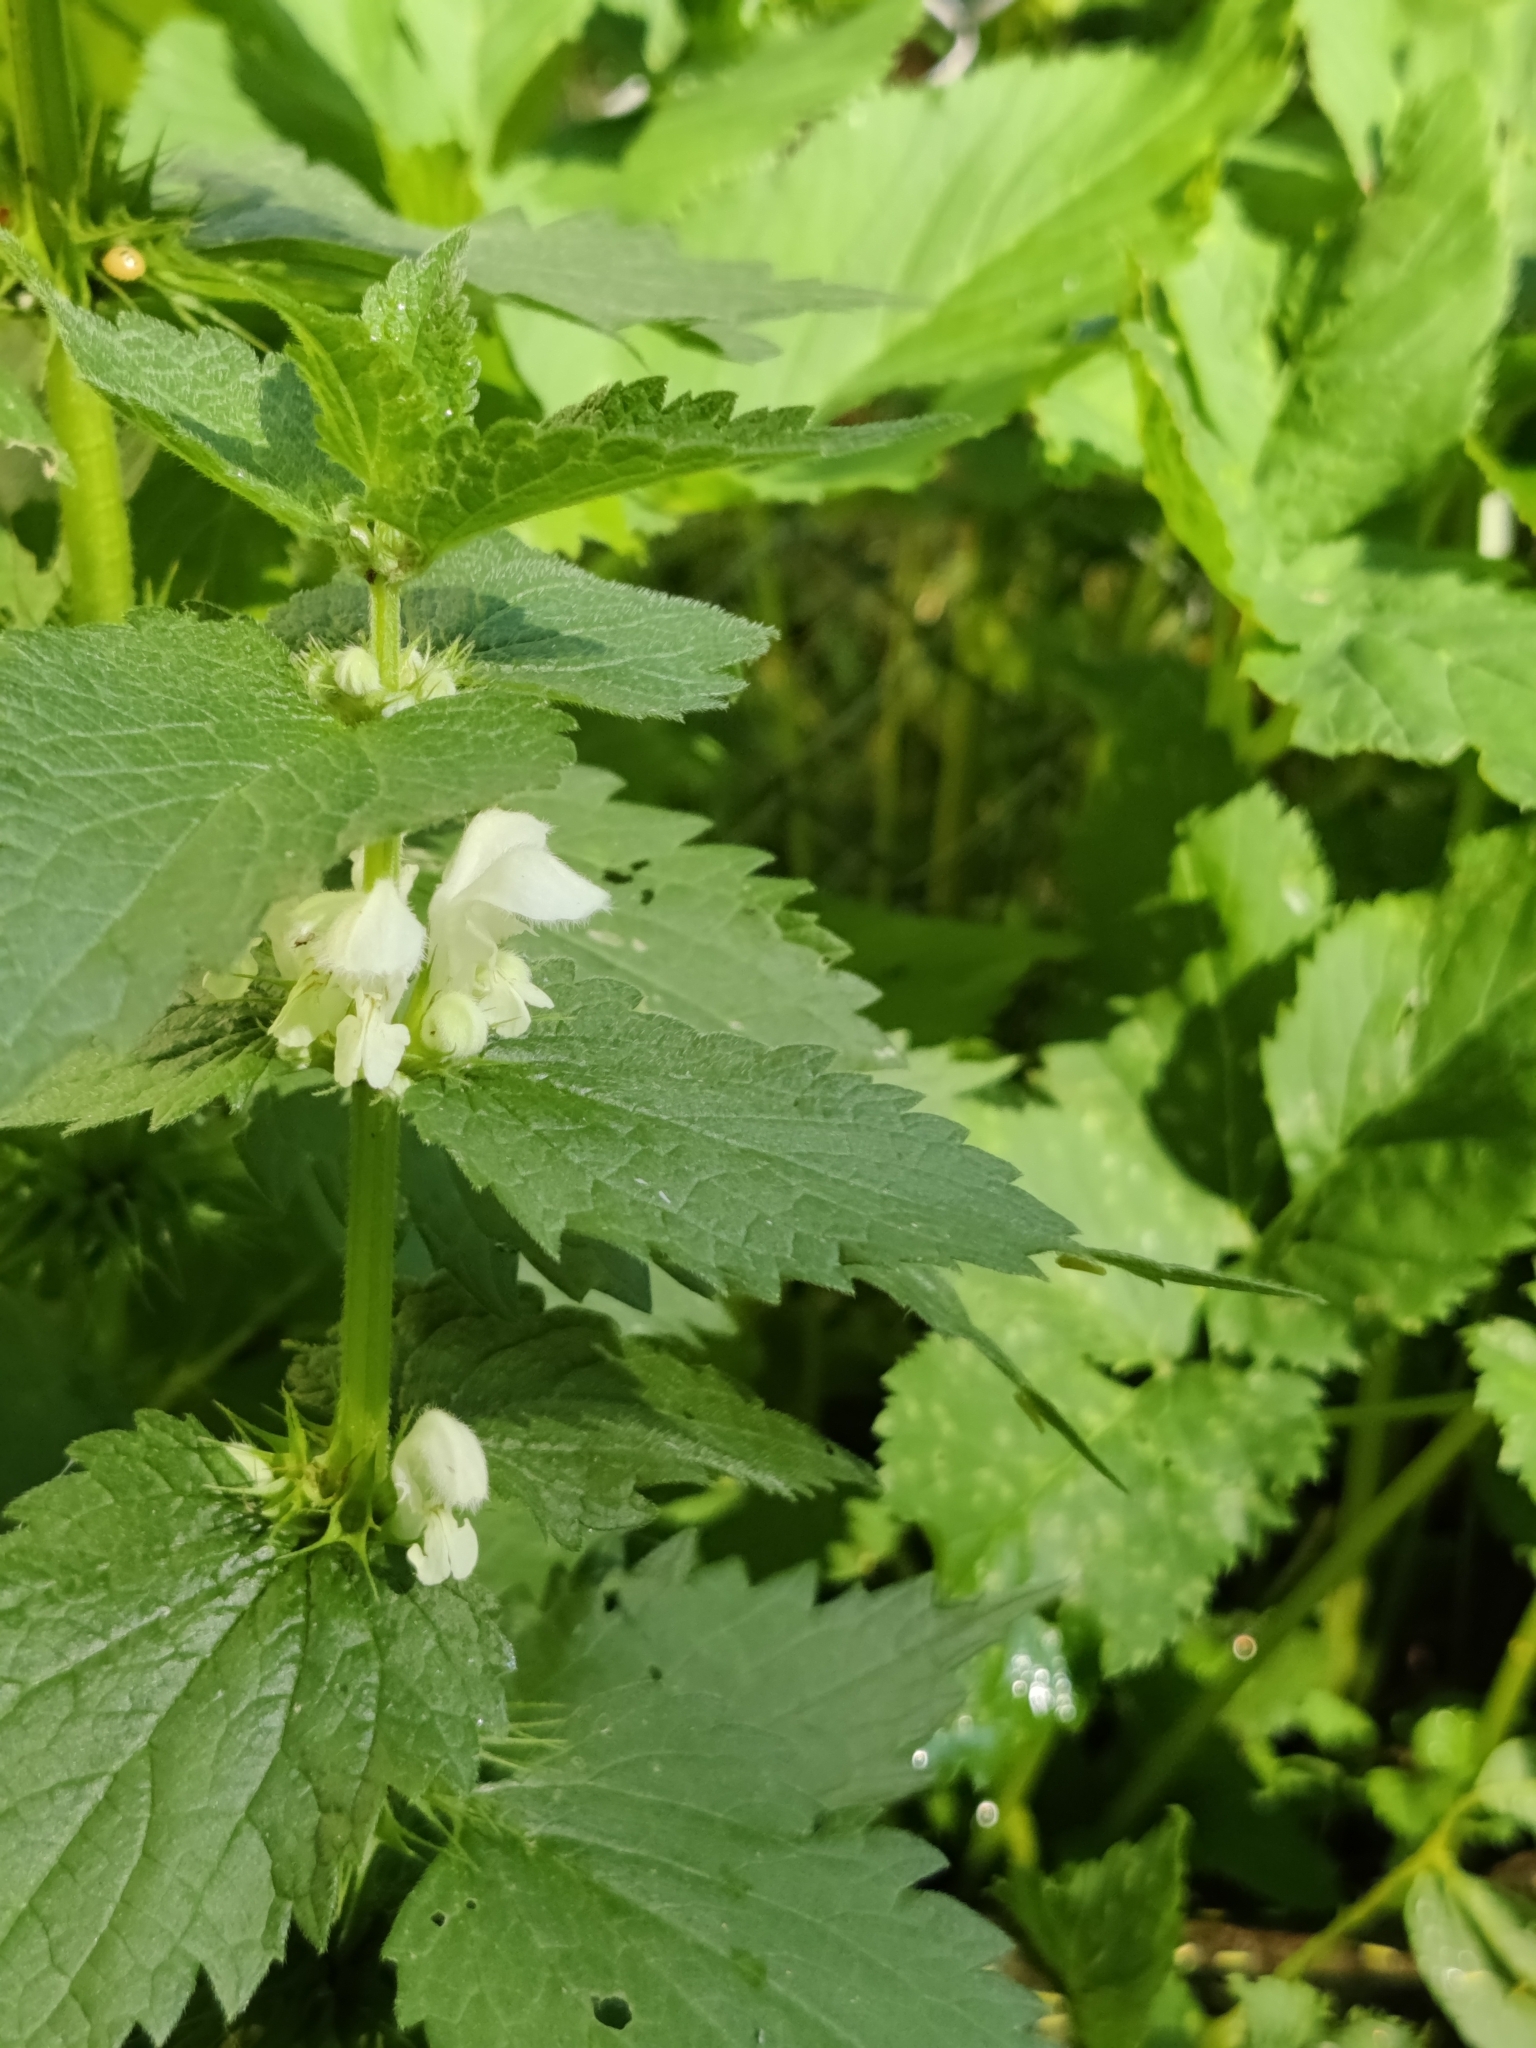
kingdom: Plantae
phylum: Tracheophyta
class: Magnoliopsida
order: Lamiales
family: Lamiaceae
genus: Lamium
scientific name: Lamium album
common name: White dead-nettle
